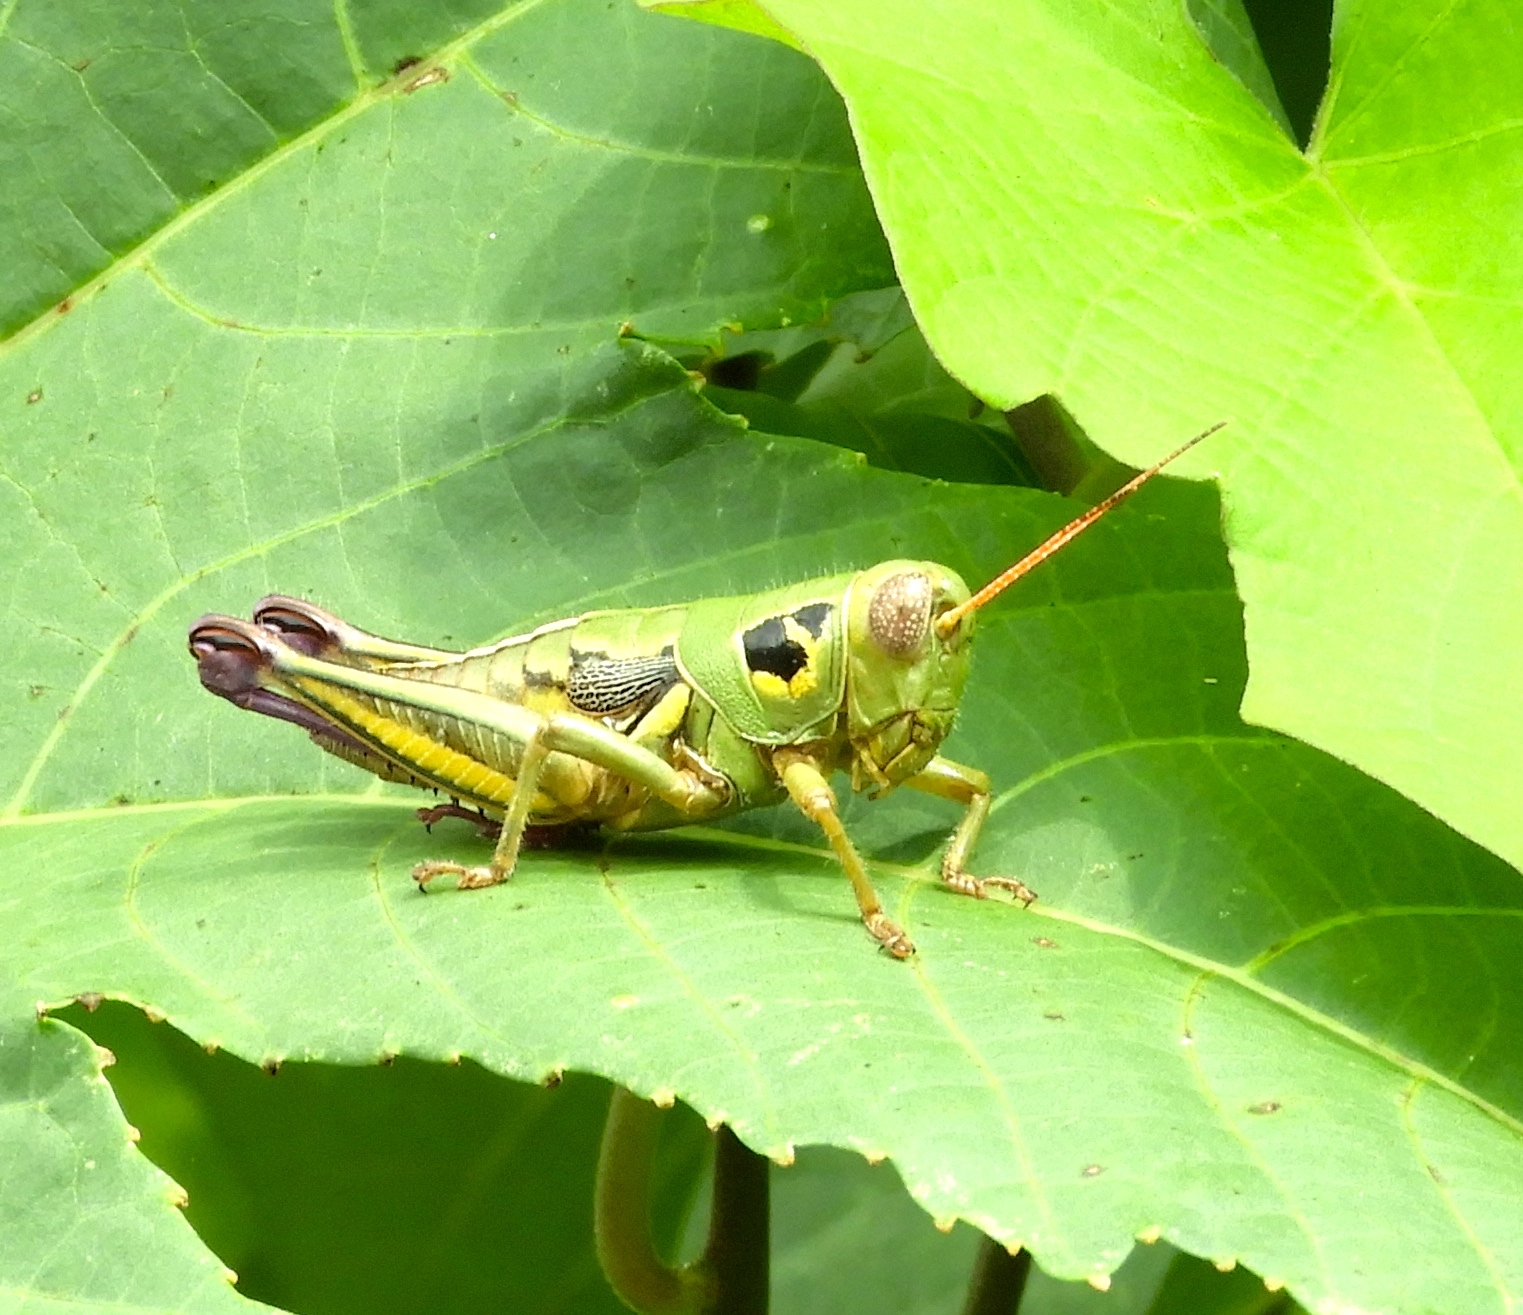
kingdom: Animalia
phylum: Arthropoda
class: Insecta
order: Orthoptera
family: Acrididae
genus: Barytettix
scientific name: Barytettix
